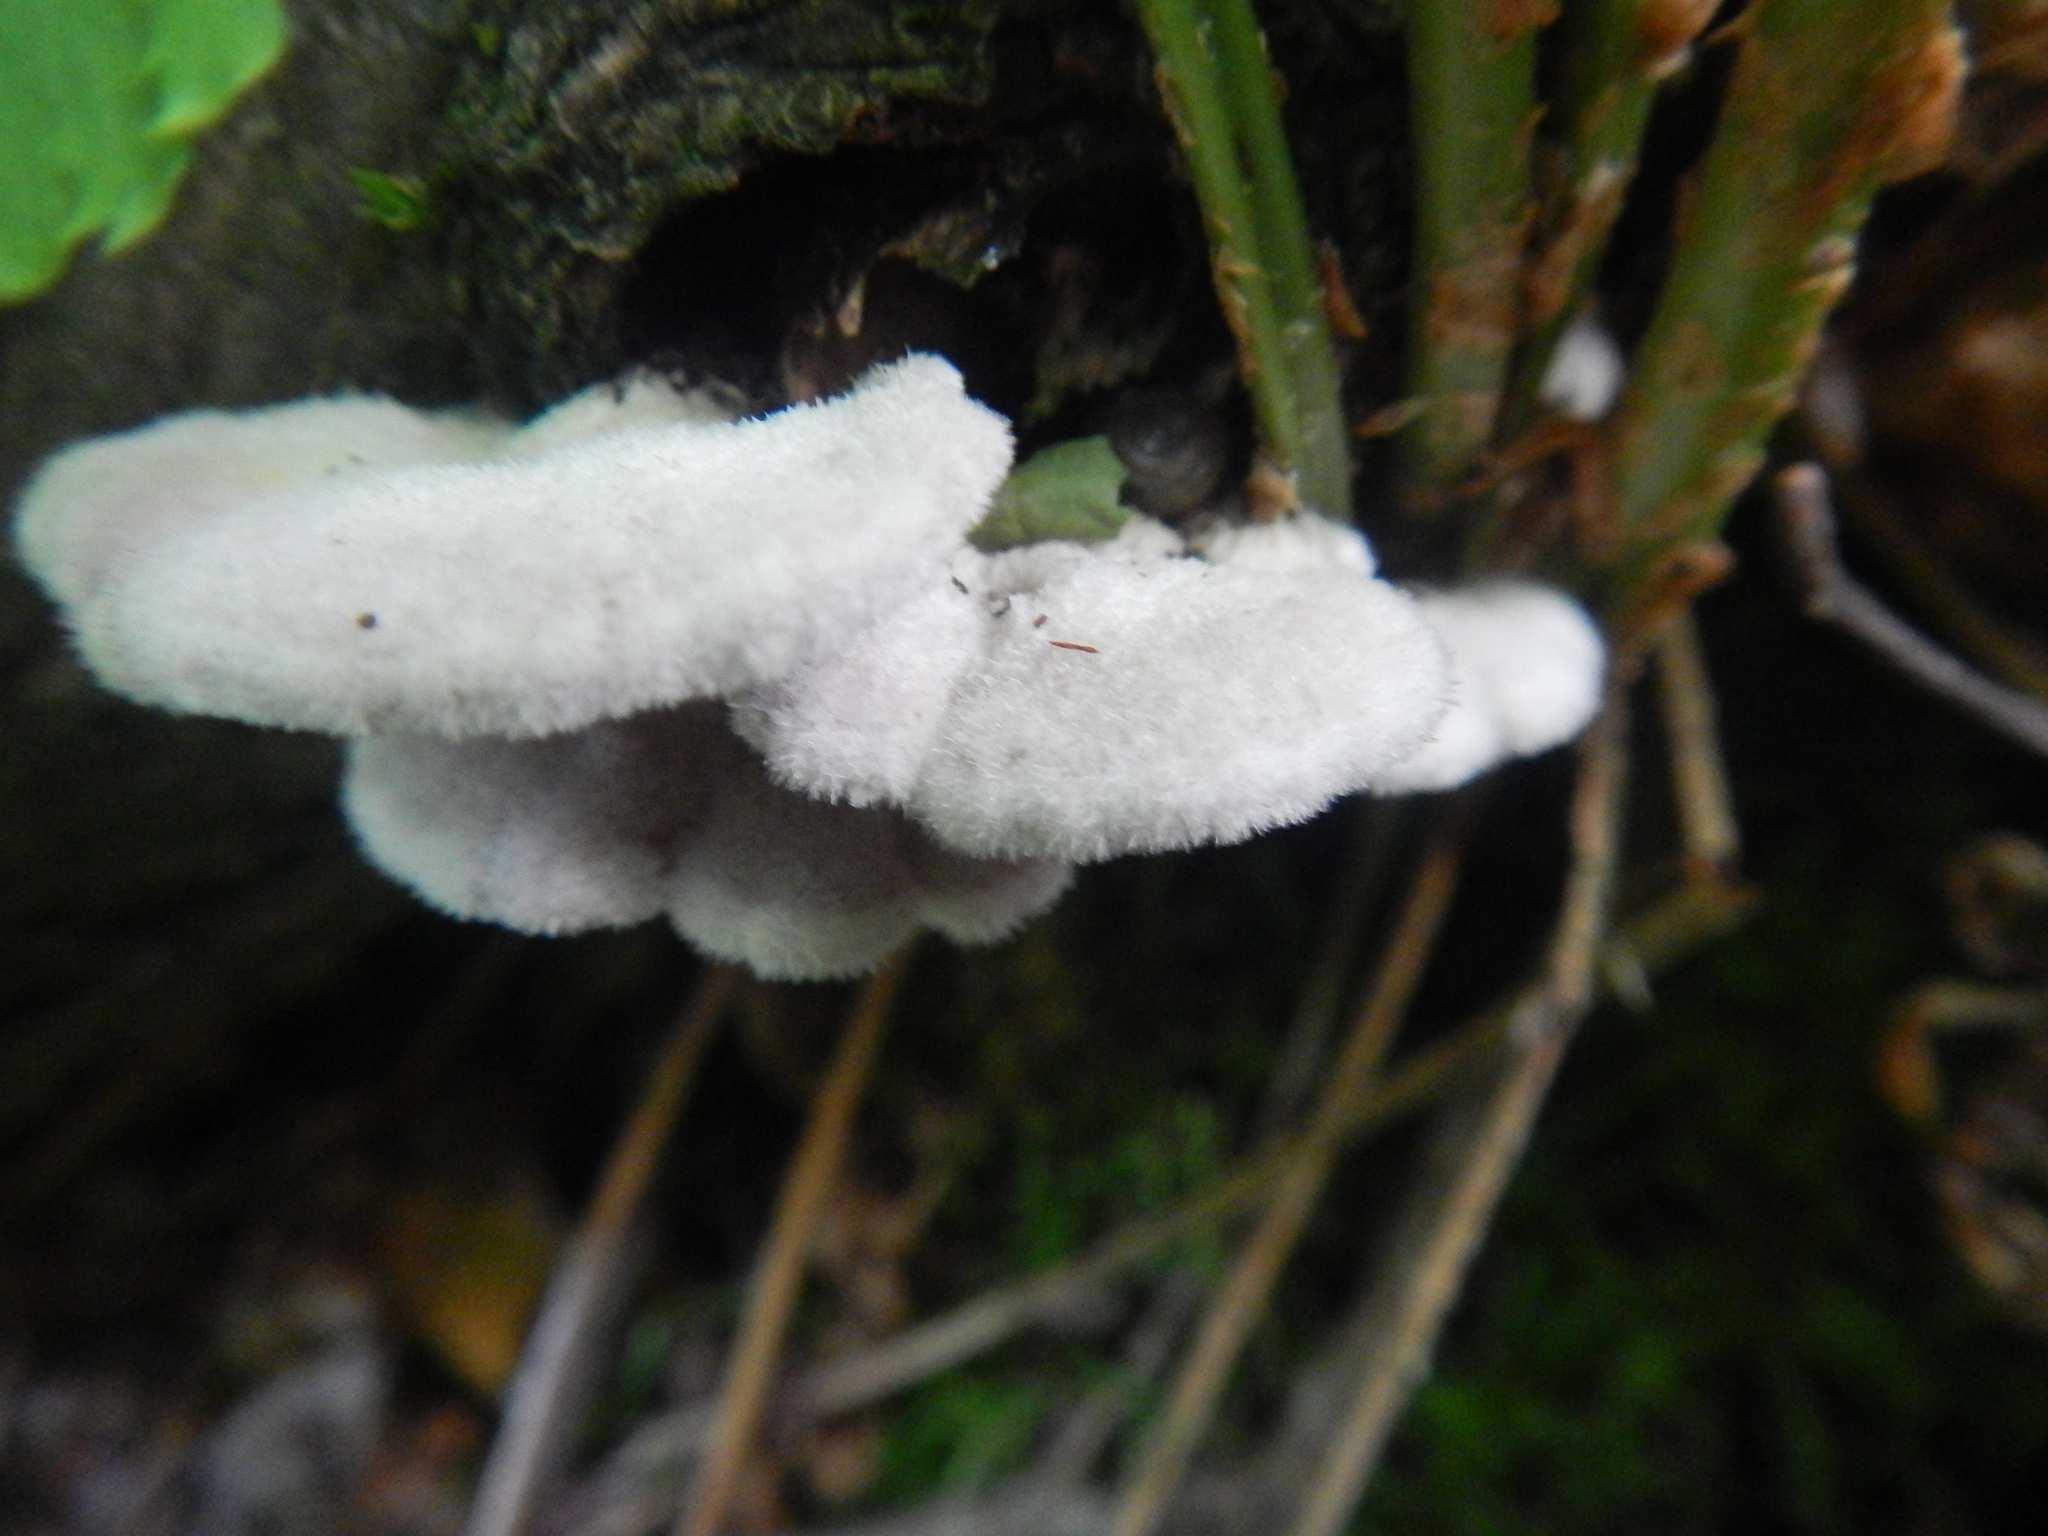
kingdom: Fungi
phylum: Basidiomycota
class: Agaricomycetes
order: Agaricales
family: Schizophyllaceae
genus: Schizophyllum
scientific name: Schizophyllum commune
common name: Common porecrust
